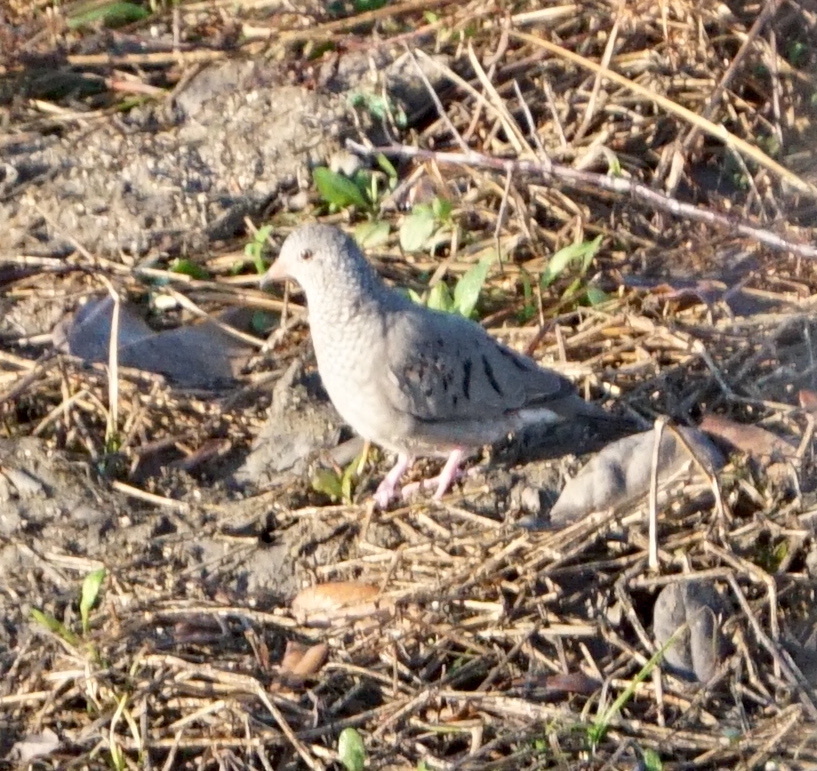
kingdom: Animalia
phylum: Chordata
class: Aves
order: Columbiformes
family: Columbidae
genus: Columbina
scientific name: Columbina passerina
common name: Common ground-dove
